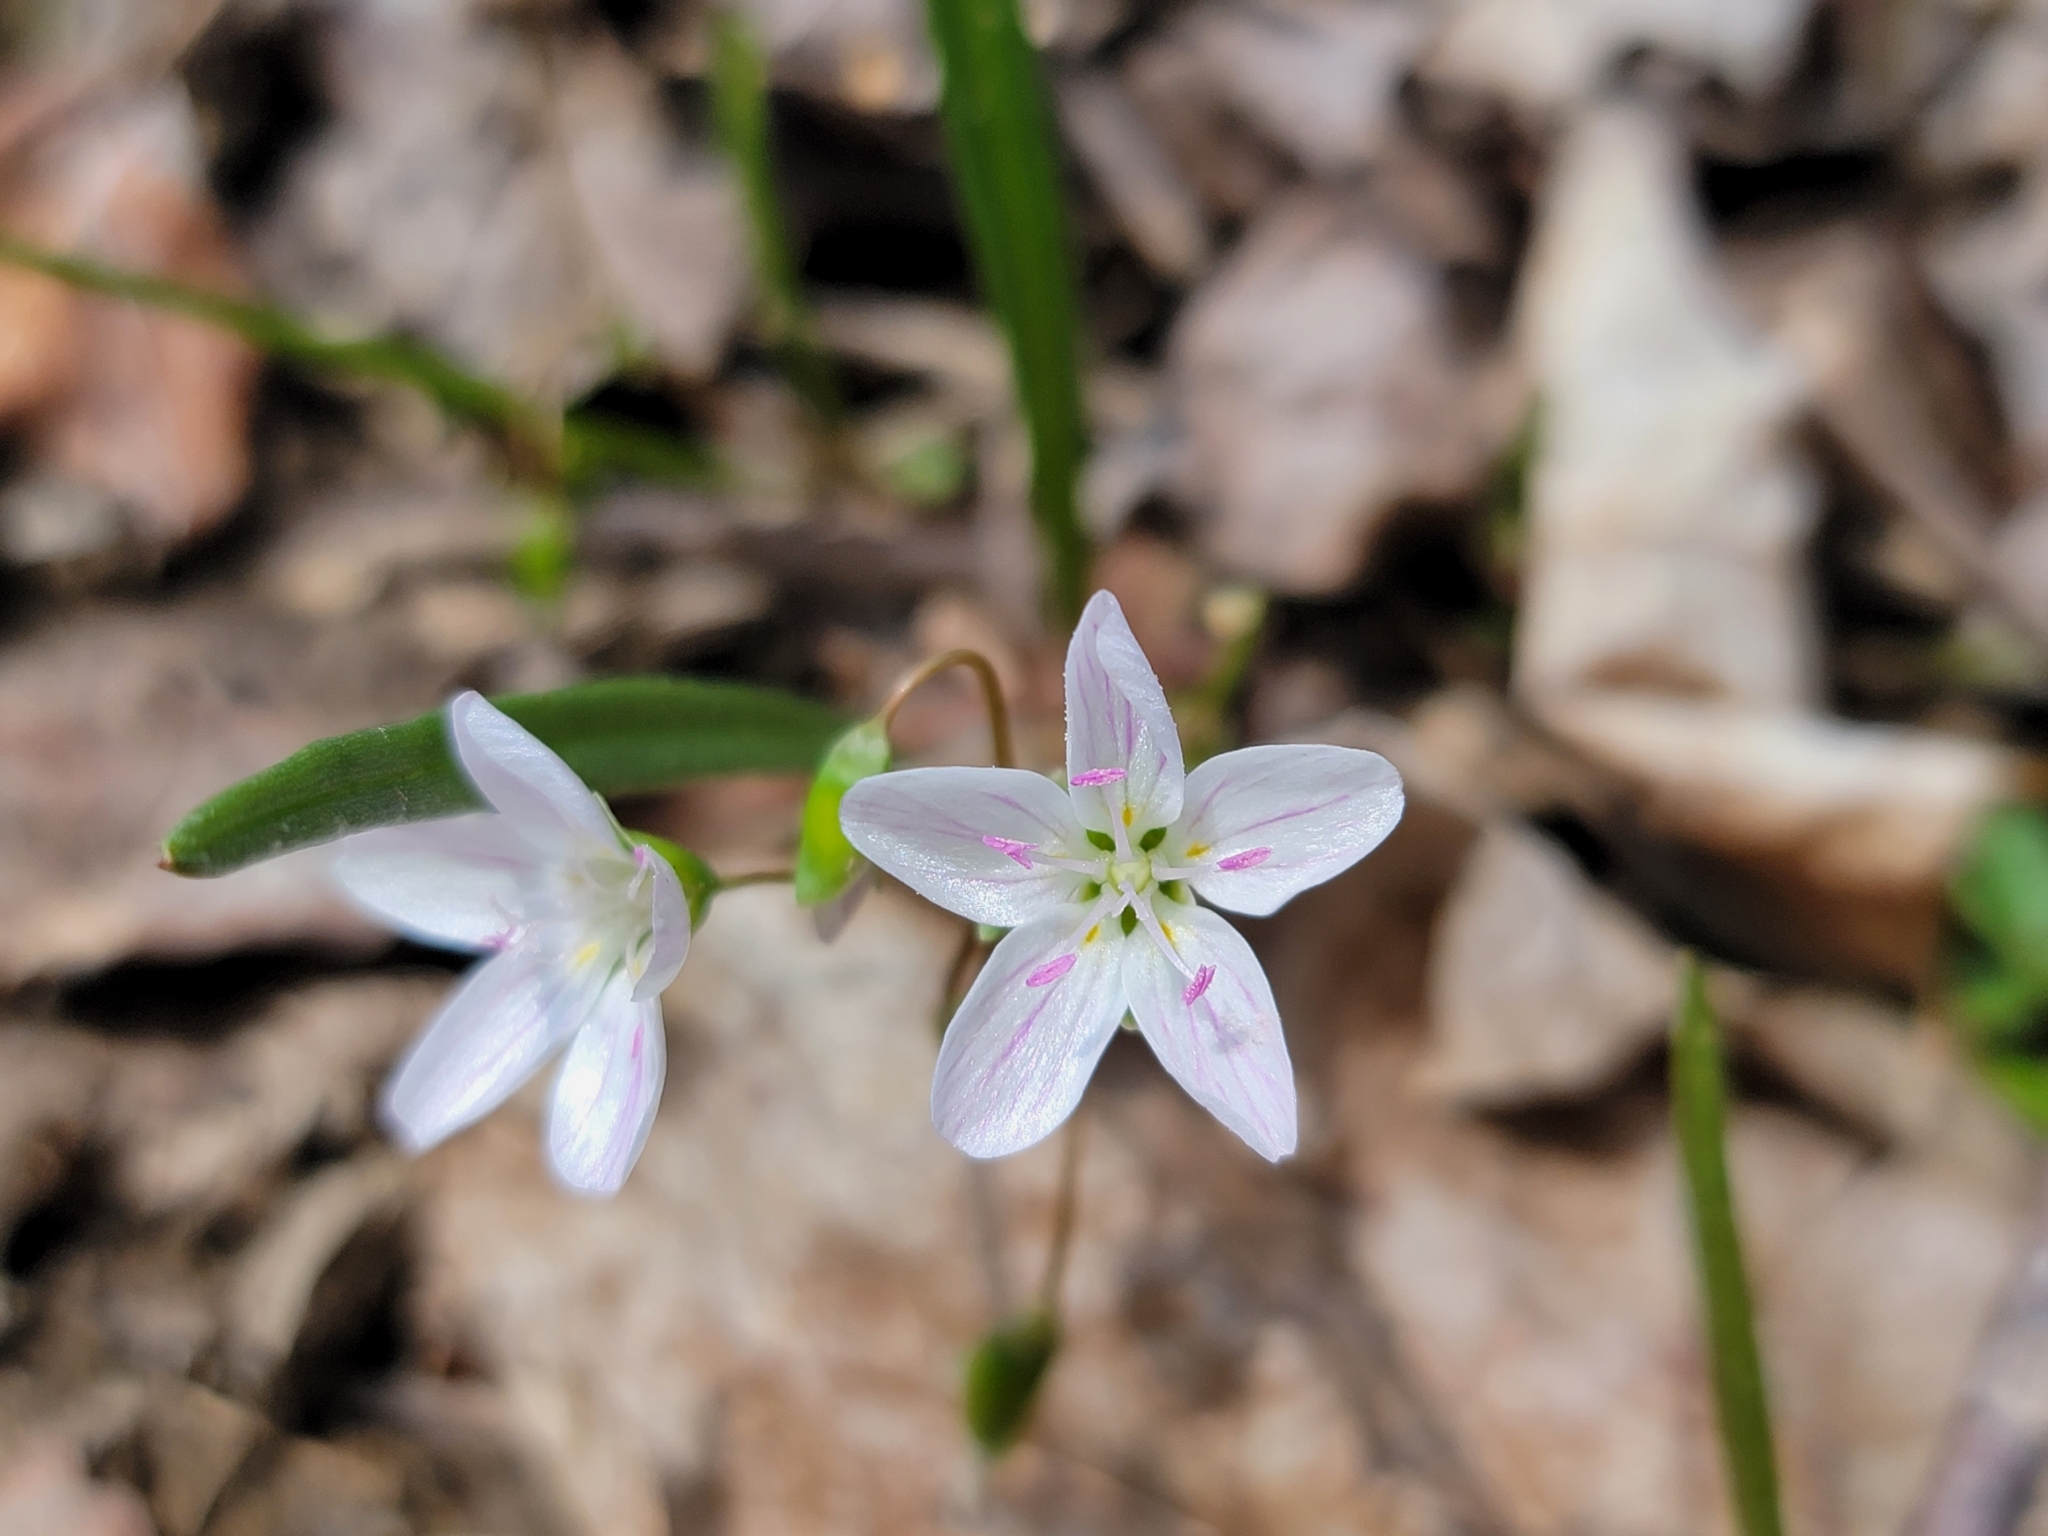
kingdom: Plantae
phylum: Tracheophyta
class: Magnoliopsida
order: Caryophyllales
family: Montiaceae
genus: Claytonia
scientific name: Claytonia virginica
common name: Virginia springbeauty
